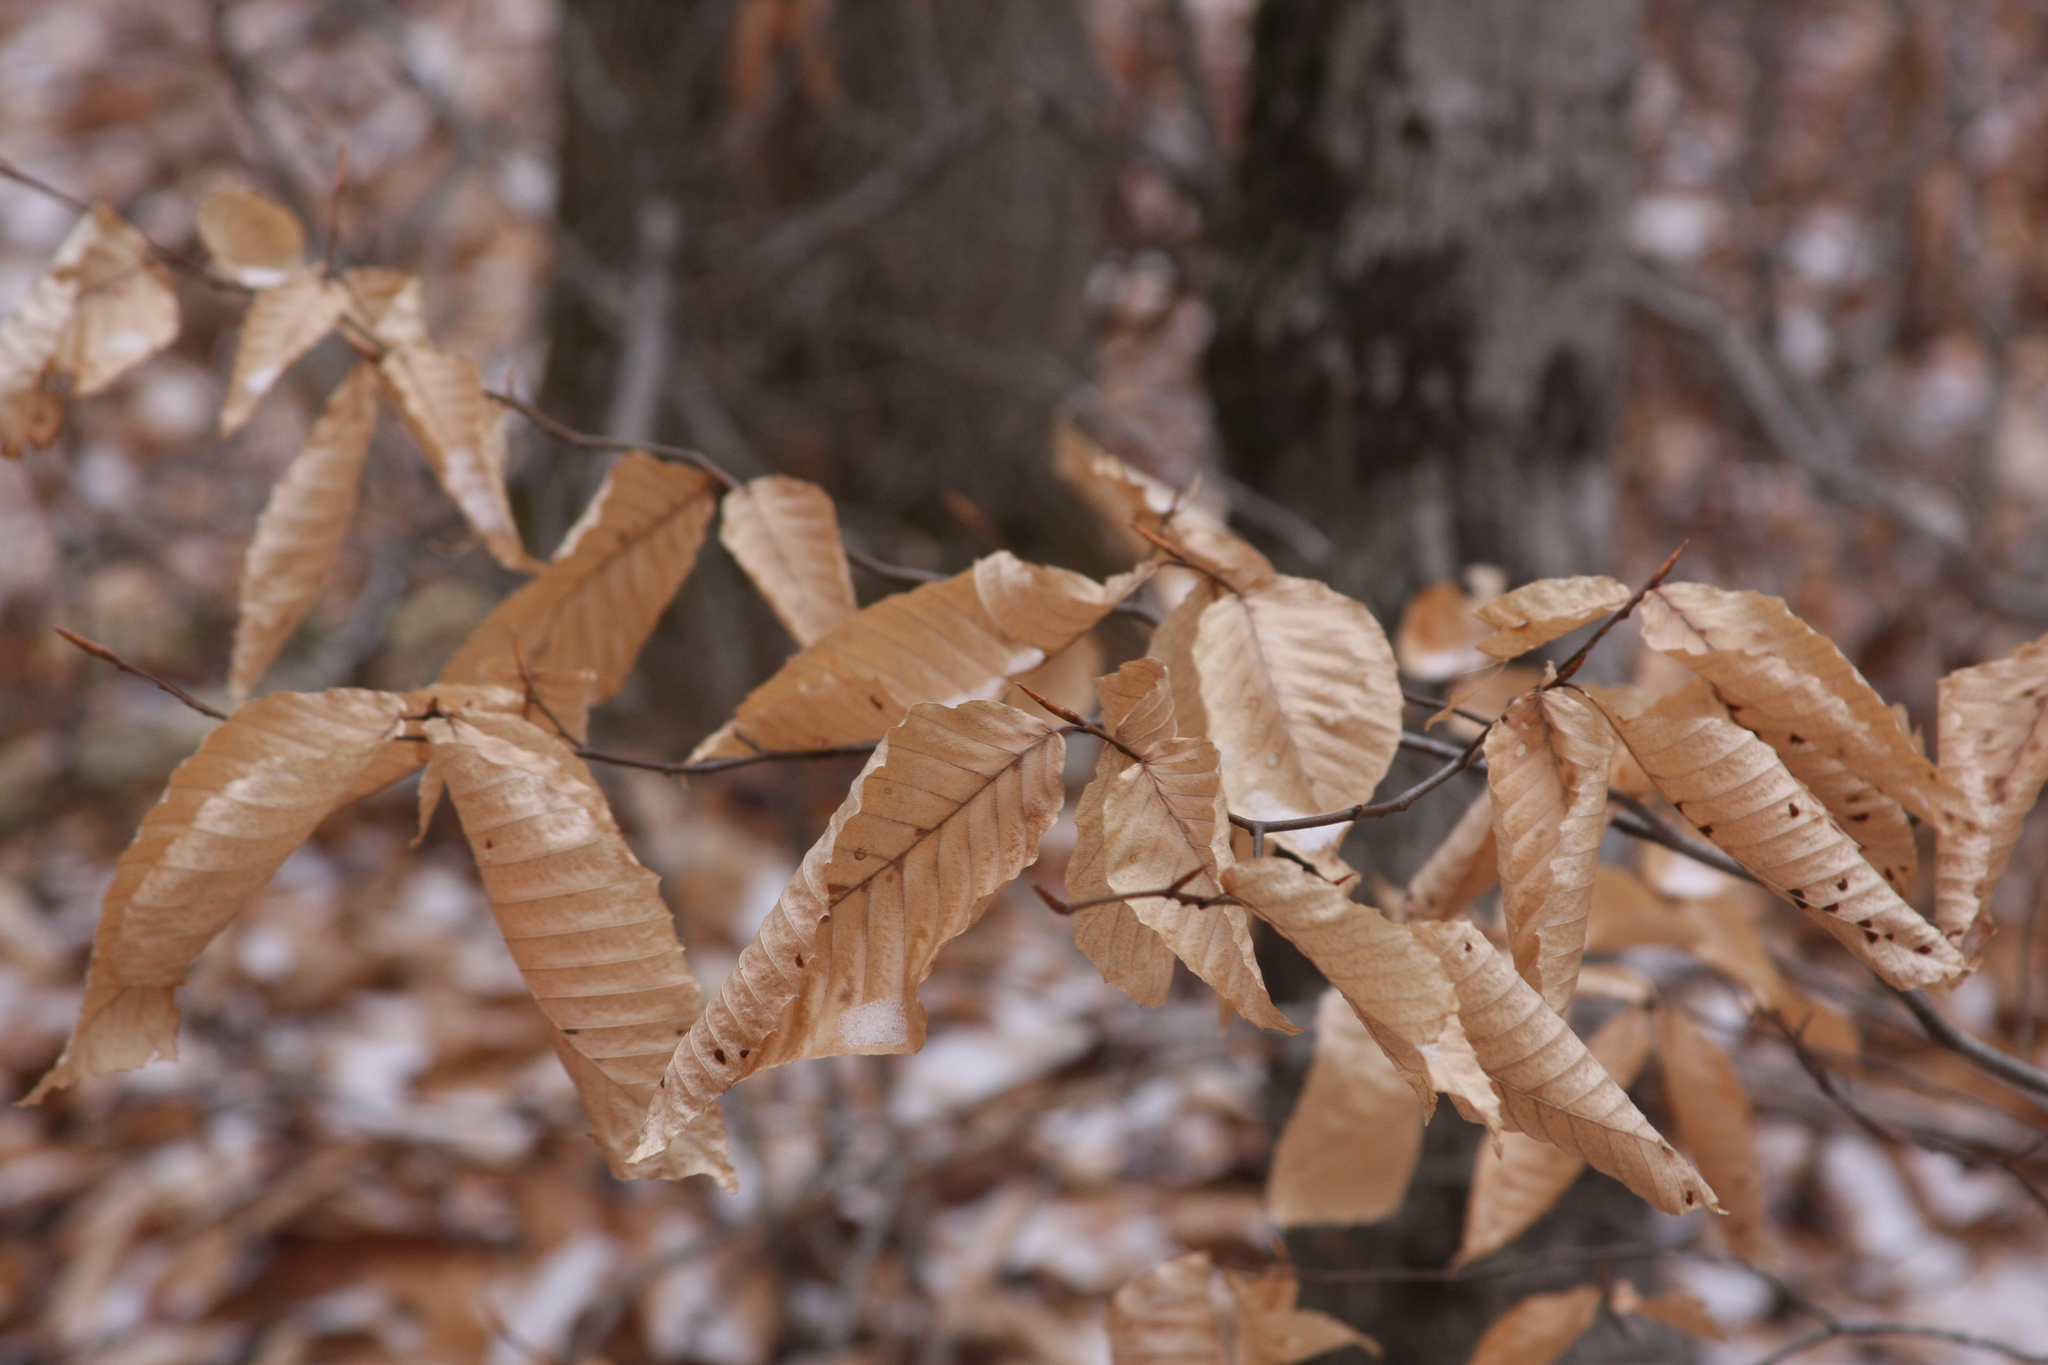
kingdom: Plantae
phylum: Tracheophyta
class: Magnoliopsida
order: Fagales
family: Fagaceae
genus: Fagus
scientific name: Fagus grandifolia
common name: American beech
